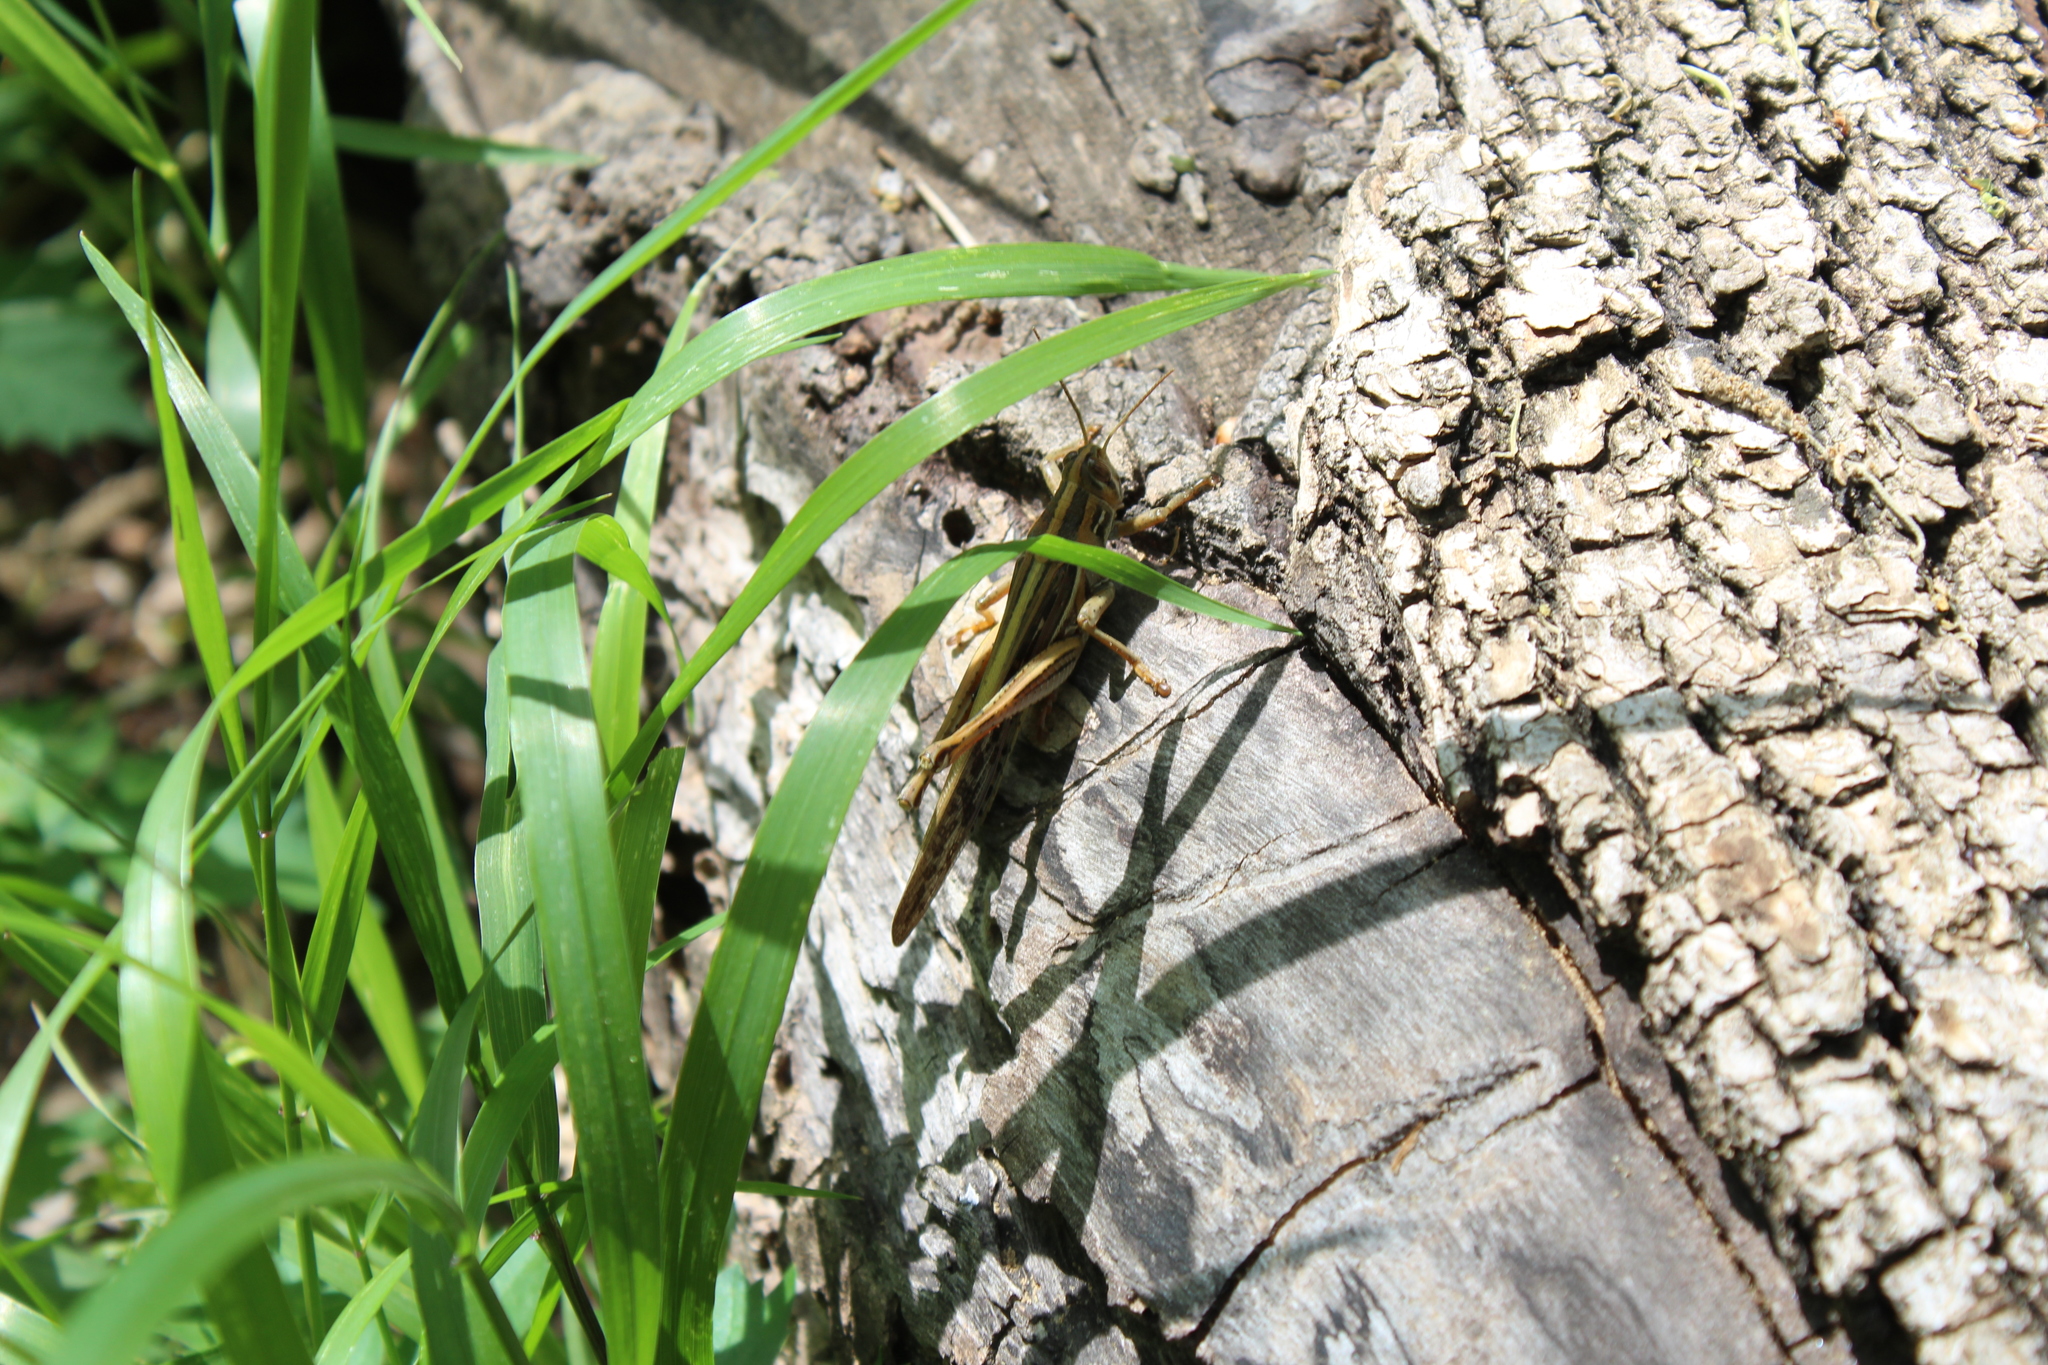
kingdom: Animalia
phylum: Arthropoda
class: Insecta
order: Orthoptera
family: Acrididae
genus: Schistocerca
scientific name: Schistocerca americana
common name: American bird locust
